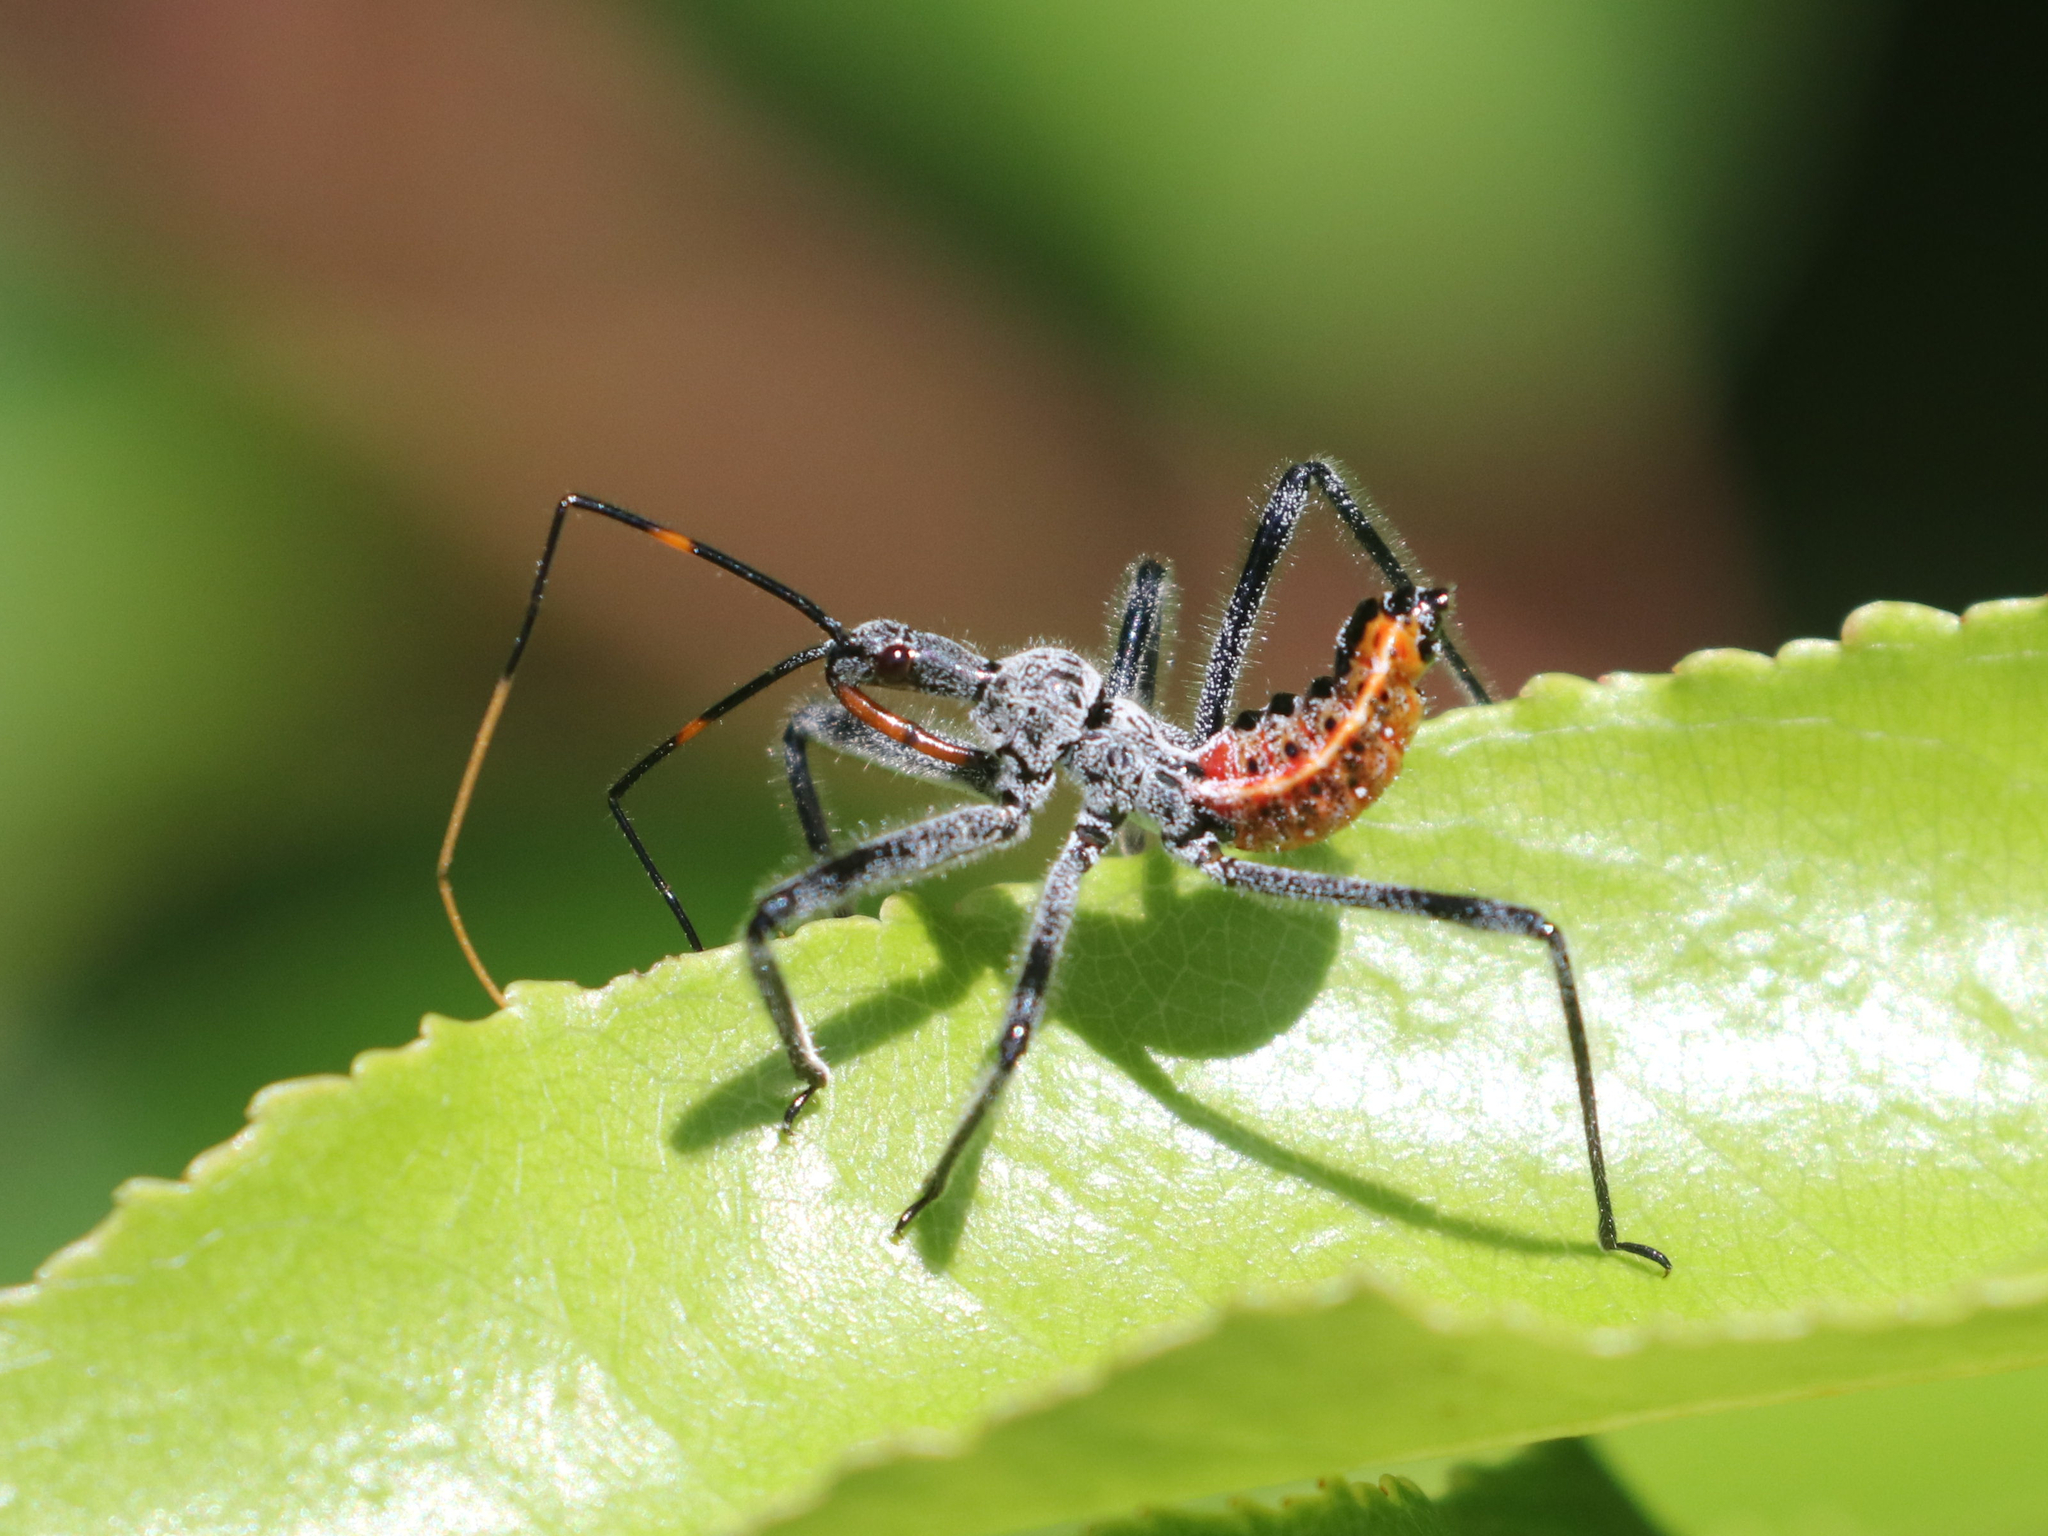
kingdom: Animalia
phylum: Arthropoda
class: Insecta
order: Hemiptera
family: Reduviidae
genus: Arilus
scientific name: Arilus cristatus
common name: North american wheel bug
